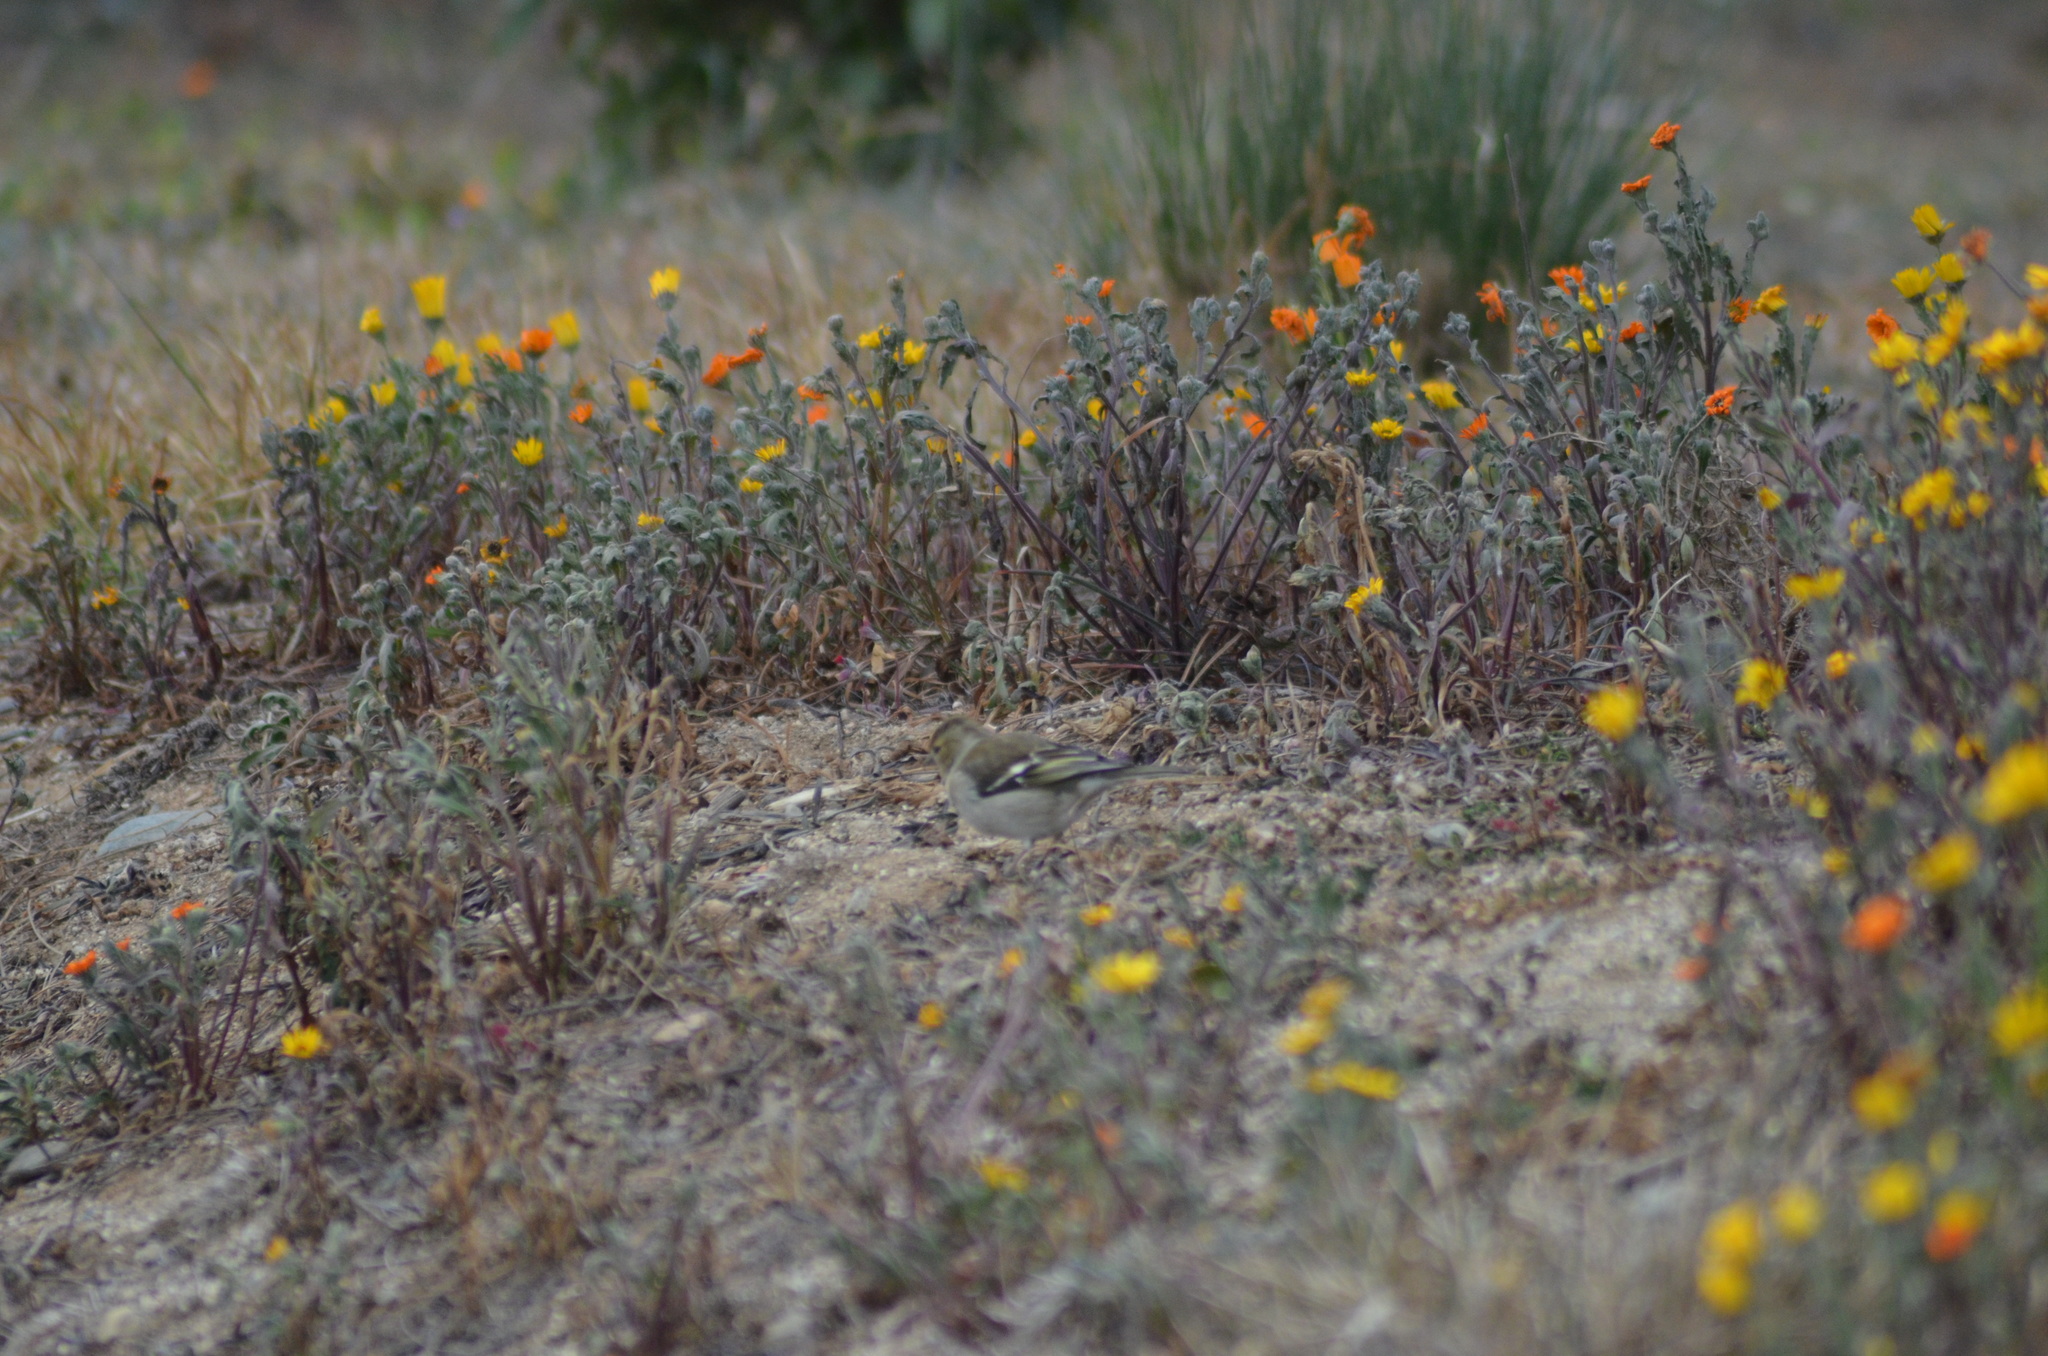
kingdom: Animalia
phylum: Chordata
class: Aves
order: Passeriformes
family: Fringillidae
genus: Fringilla
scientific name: Fringilla coelebs
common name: Common chaffinch
